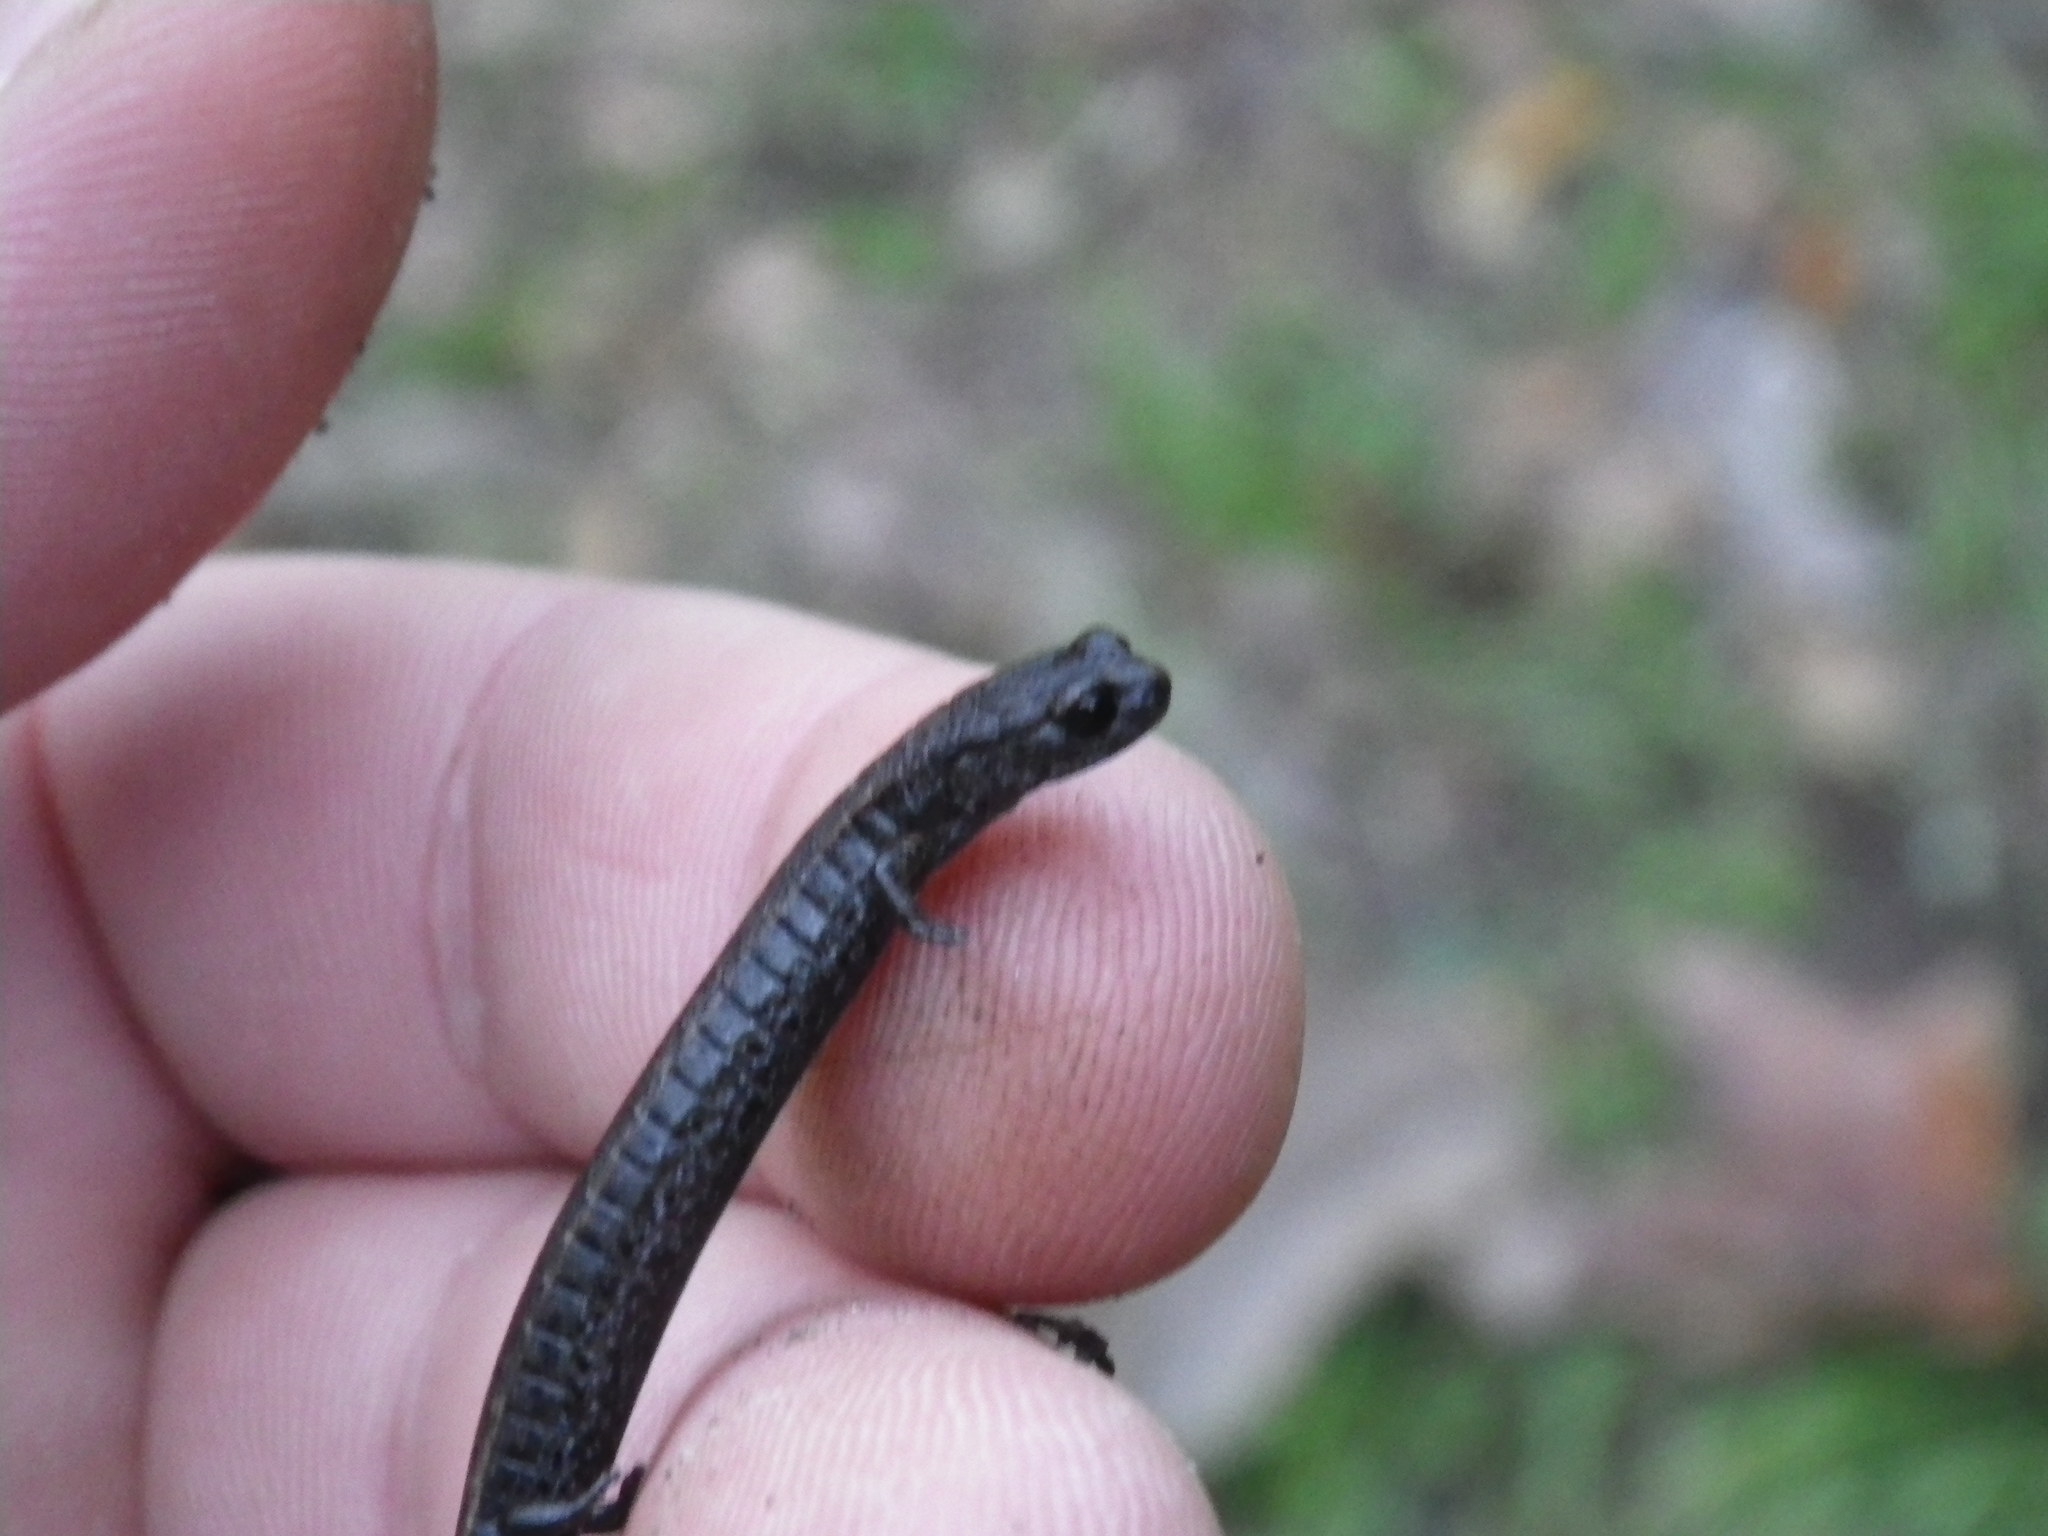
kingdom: Animalia
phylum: Chordata
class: Amphibia
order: Caudata
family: Plethodontidae
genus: Batrachoseps
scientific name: Batrachoseps attenuatus
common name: California slender salamander
